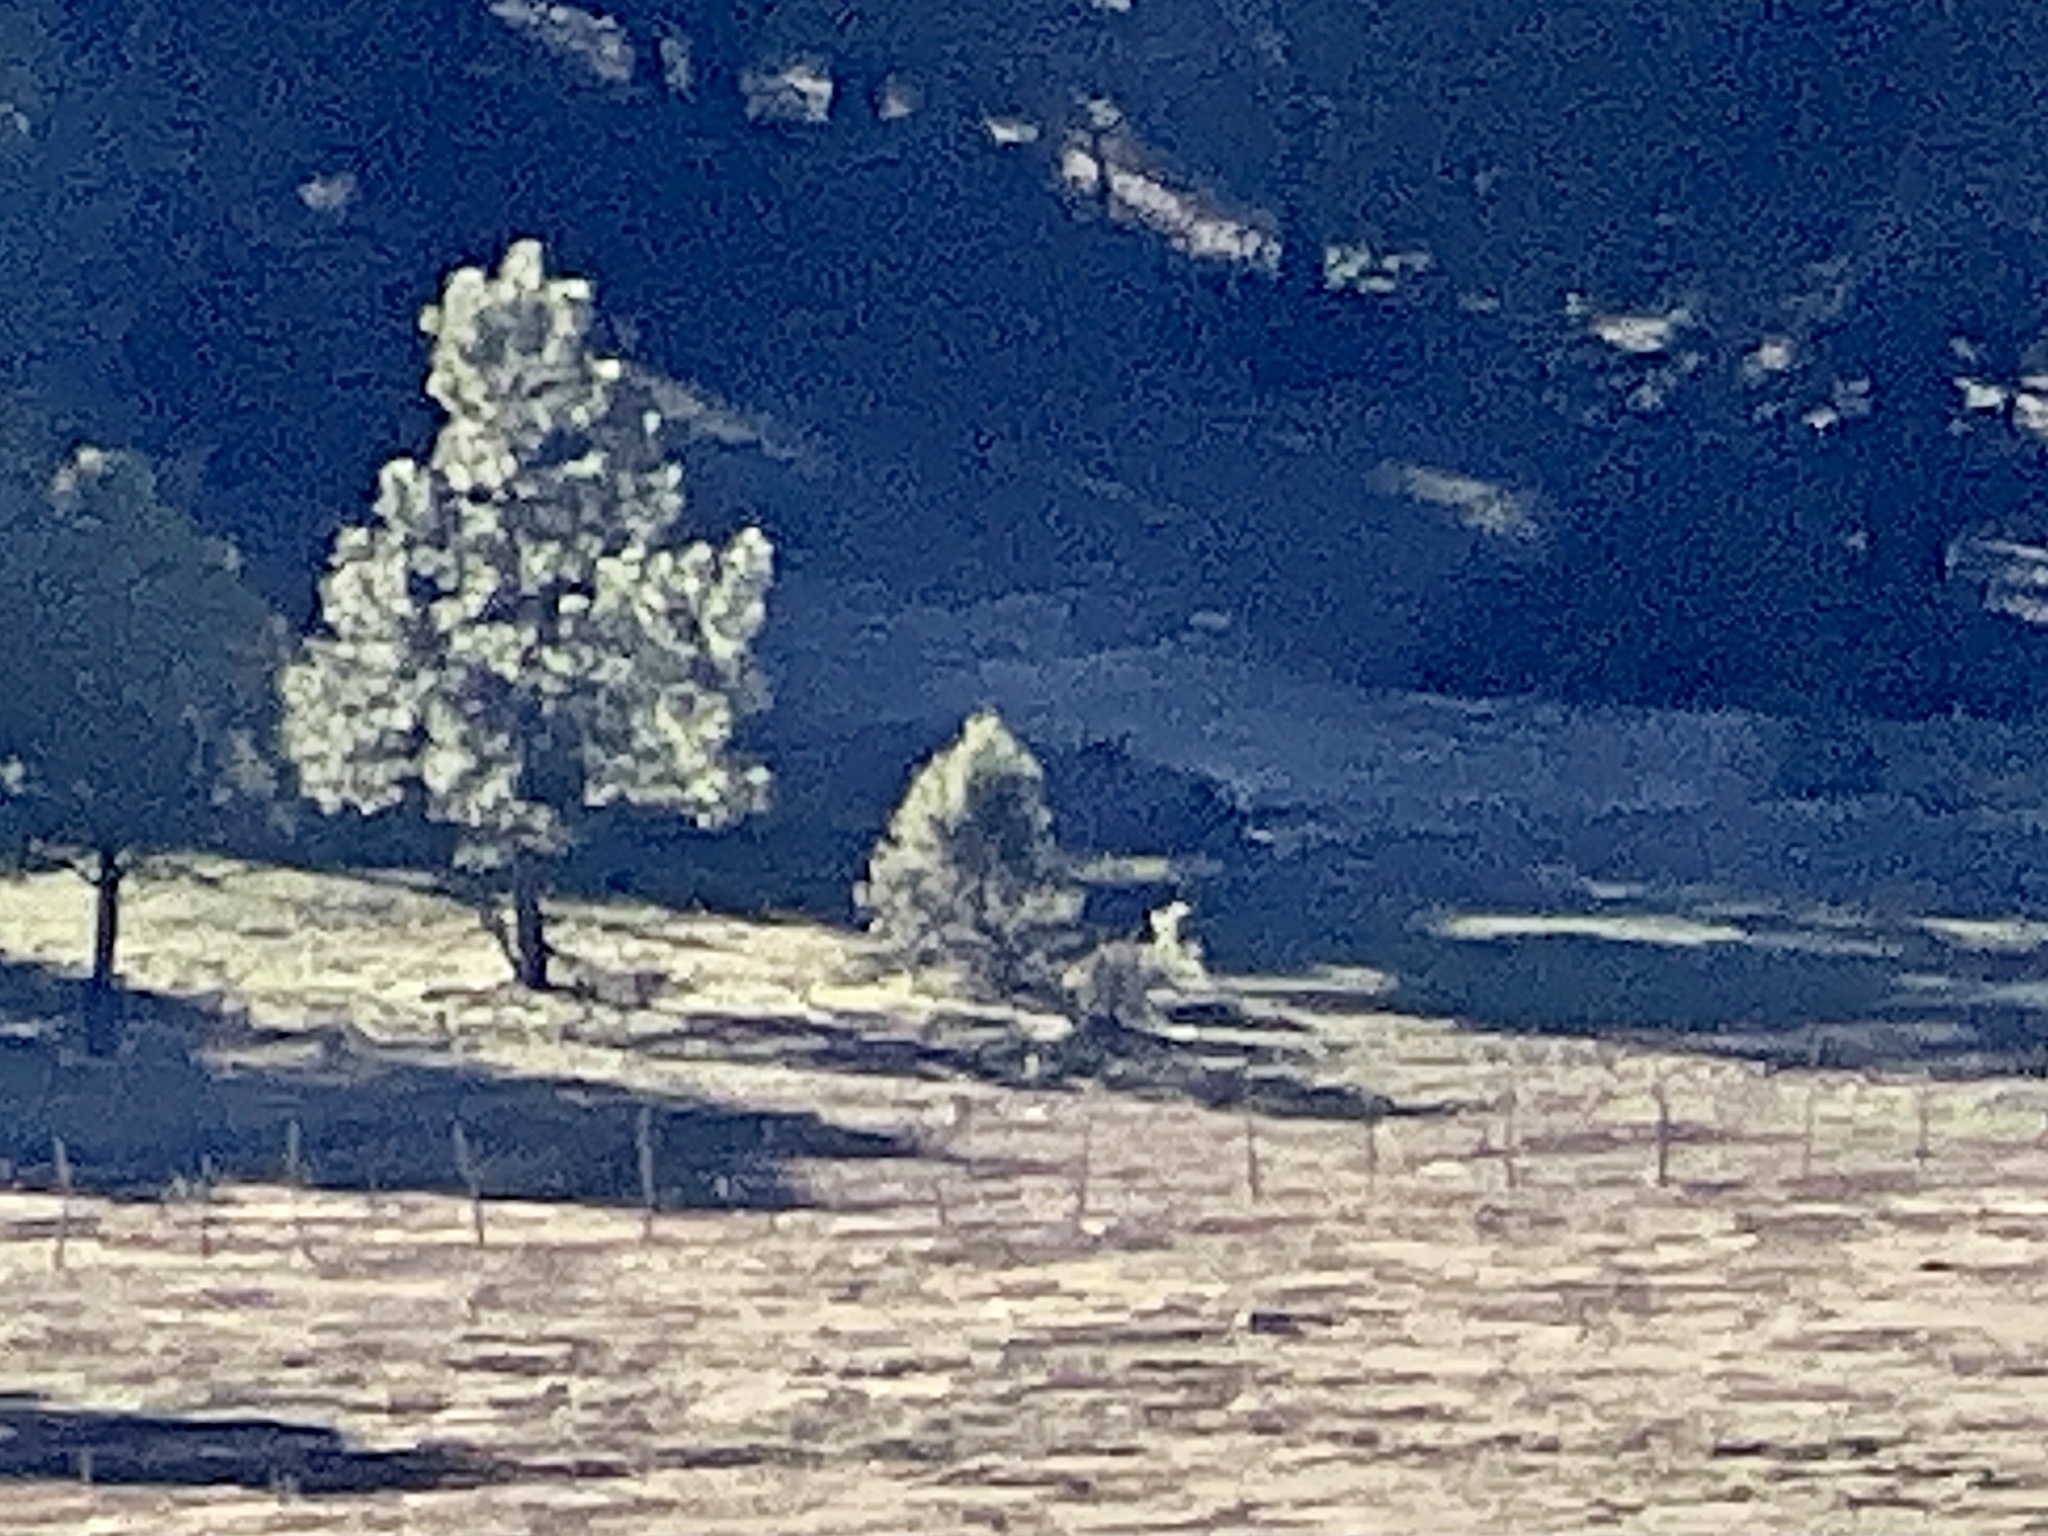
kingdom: Animalia
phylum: Chordata
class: Mammalia
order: Artiodactyla
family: Cervidae
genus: Cervus
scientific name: Cervus elaphus
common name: Red deer
